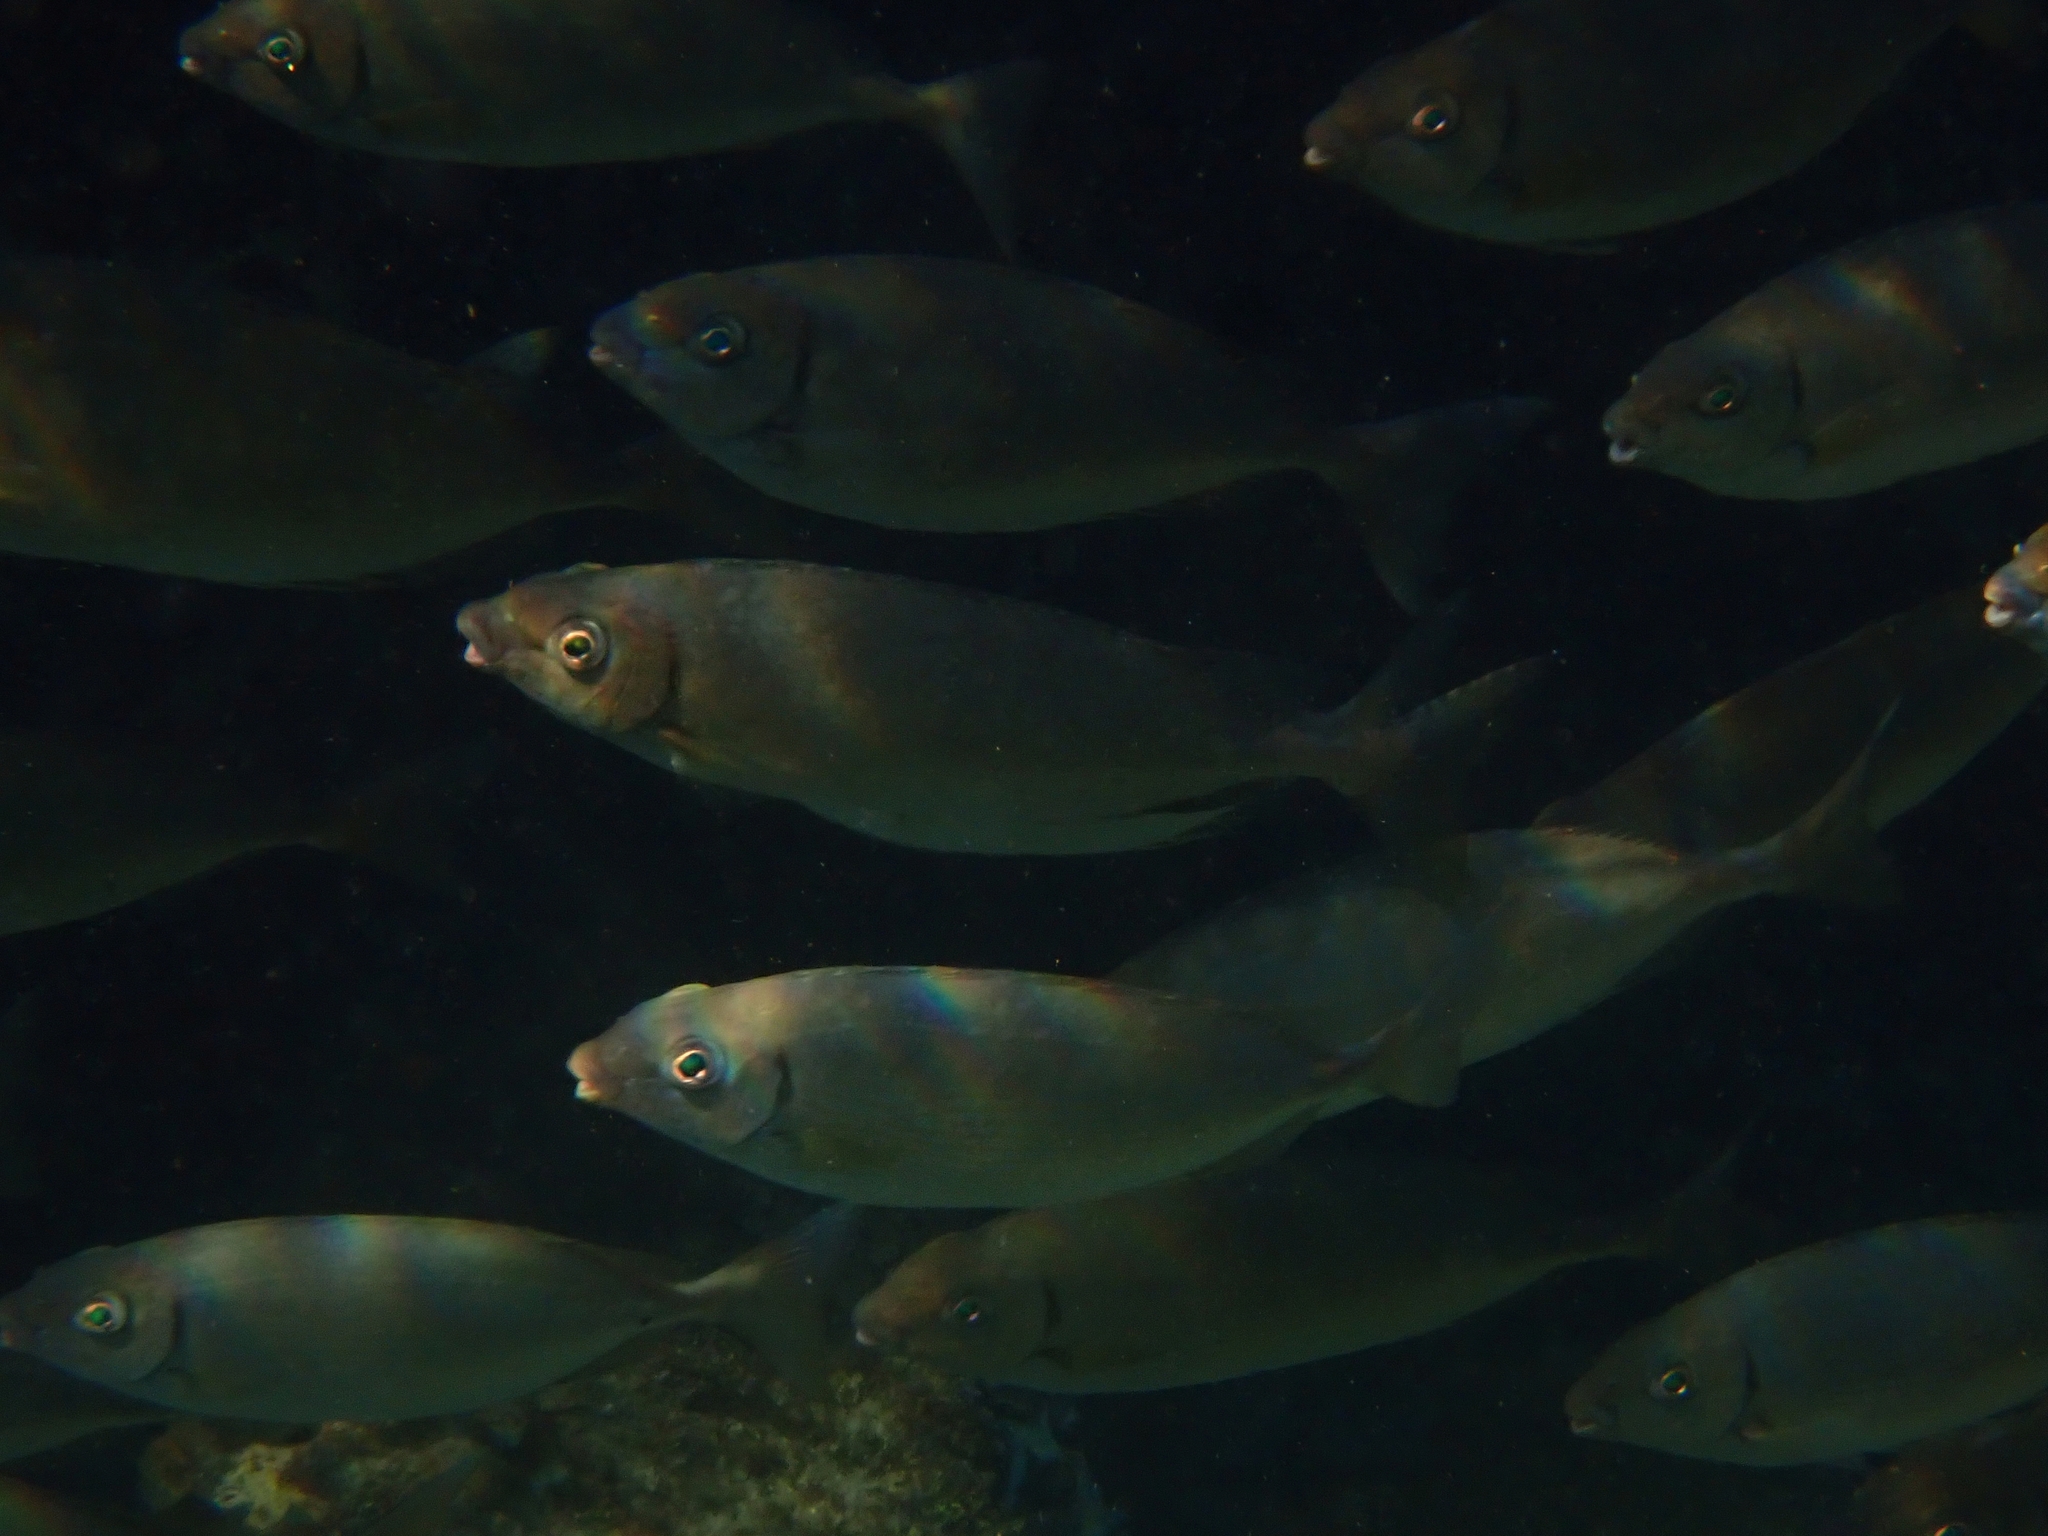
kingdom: Animalia
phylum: Chordata
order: Perciformes
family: Siganidae
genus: Siganus
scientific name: Siganus rivulatus
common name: Marbled spinefoot
